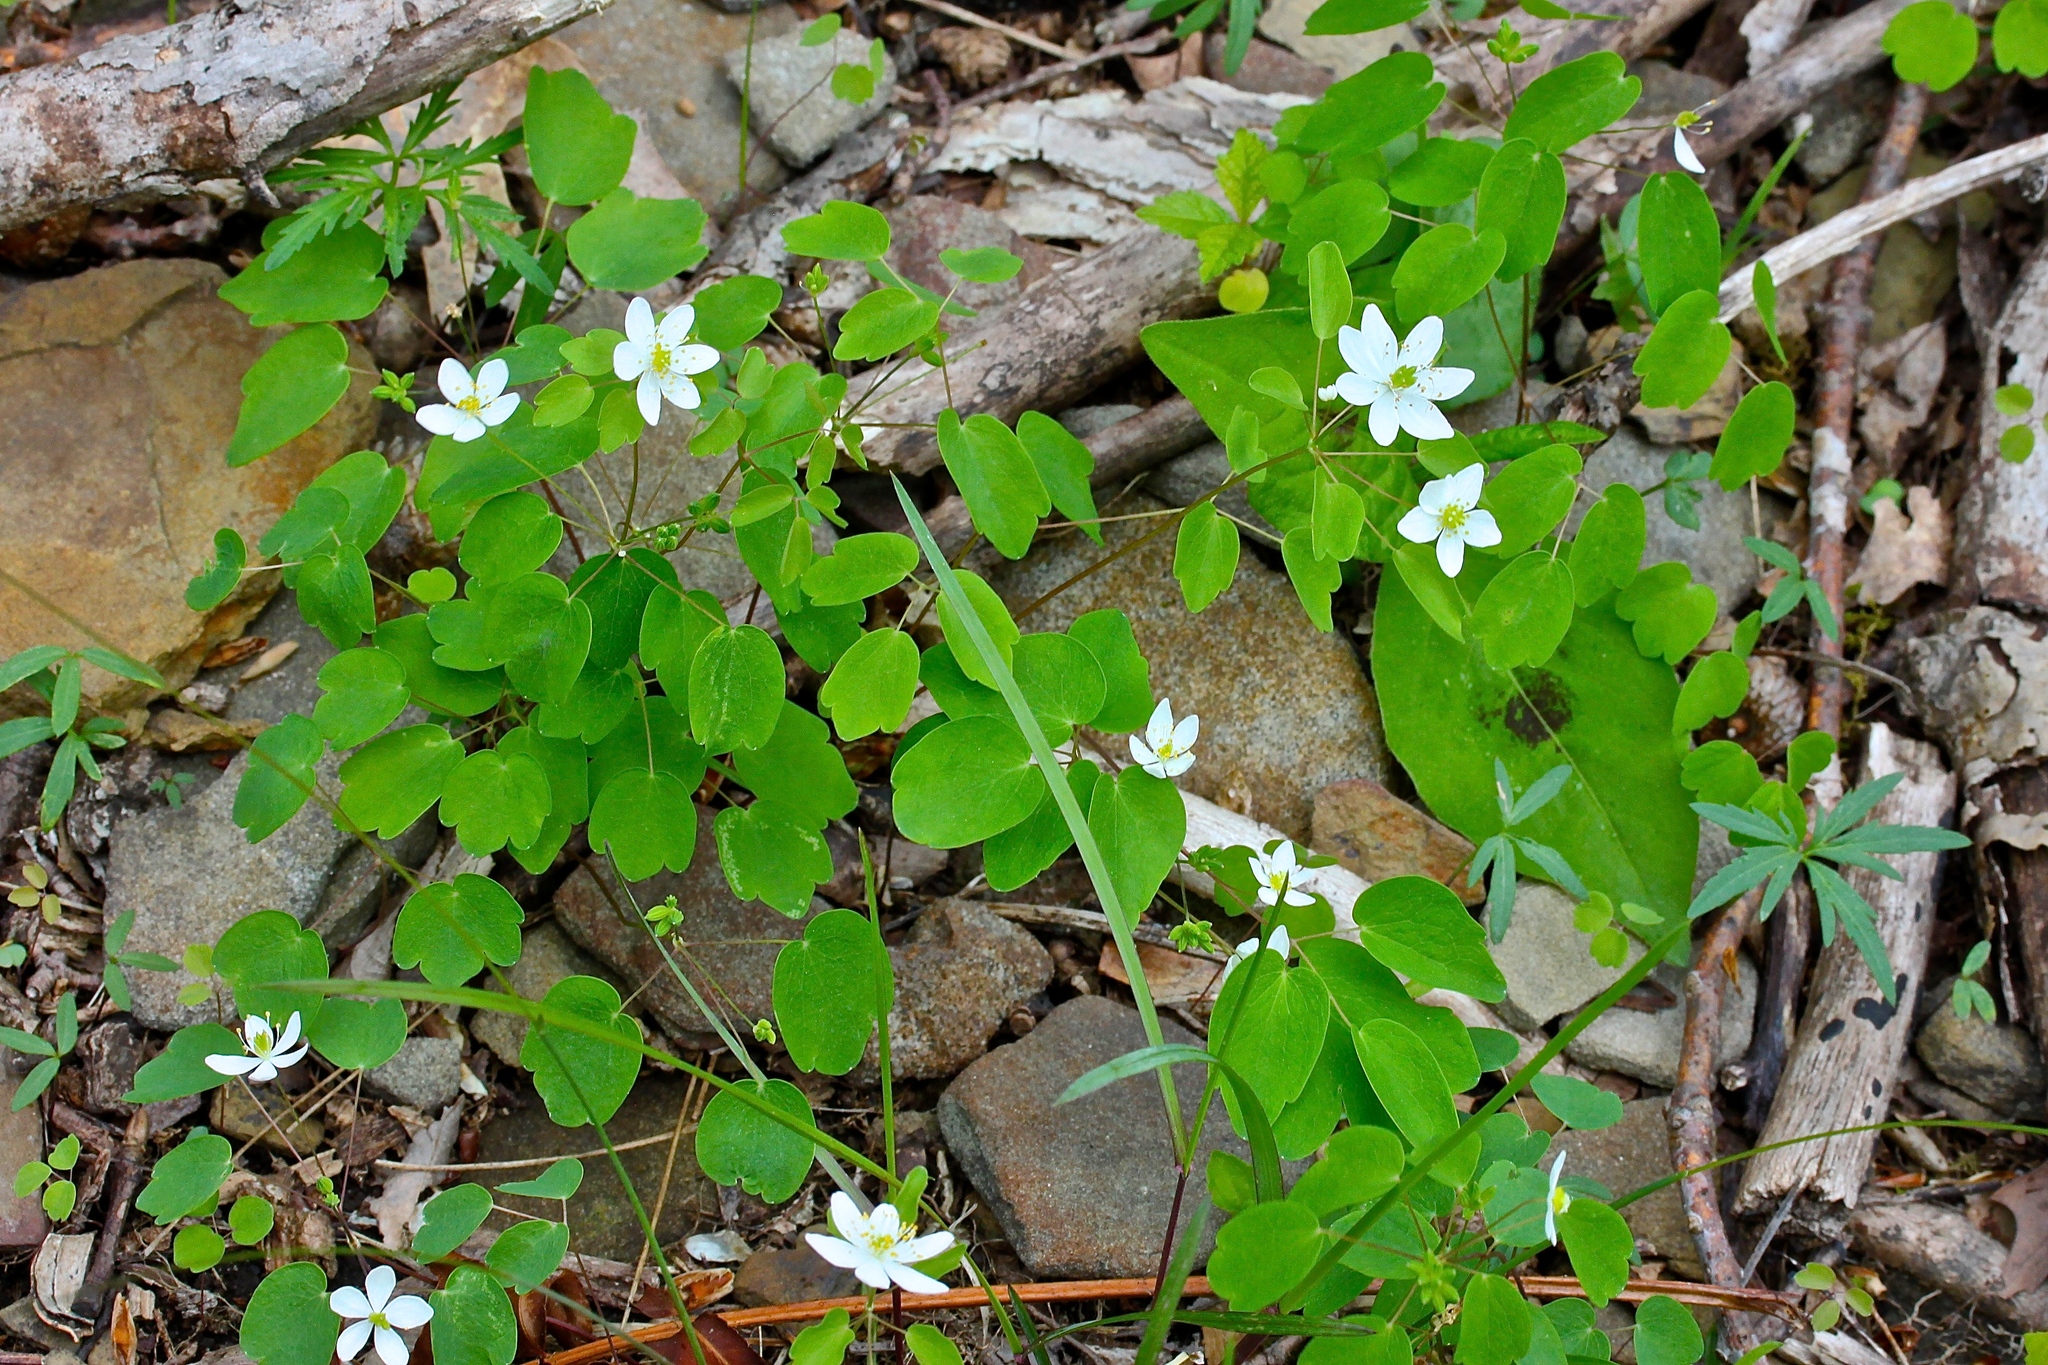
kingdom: Plantae
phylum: Tracheophyta
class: Magnoliopsida
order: Ranunculales
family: Ranunculaceae
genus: Thalictrum
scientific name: Thalictrum thalictroides
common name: Rue-anemone
